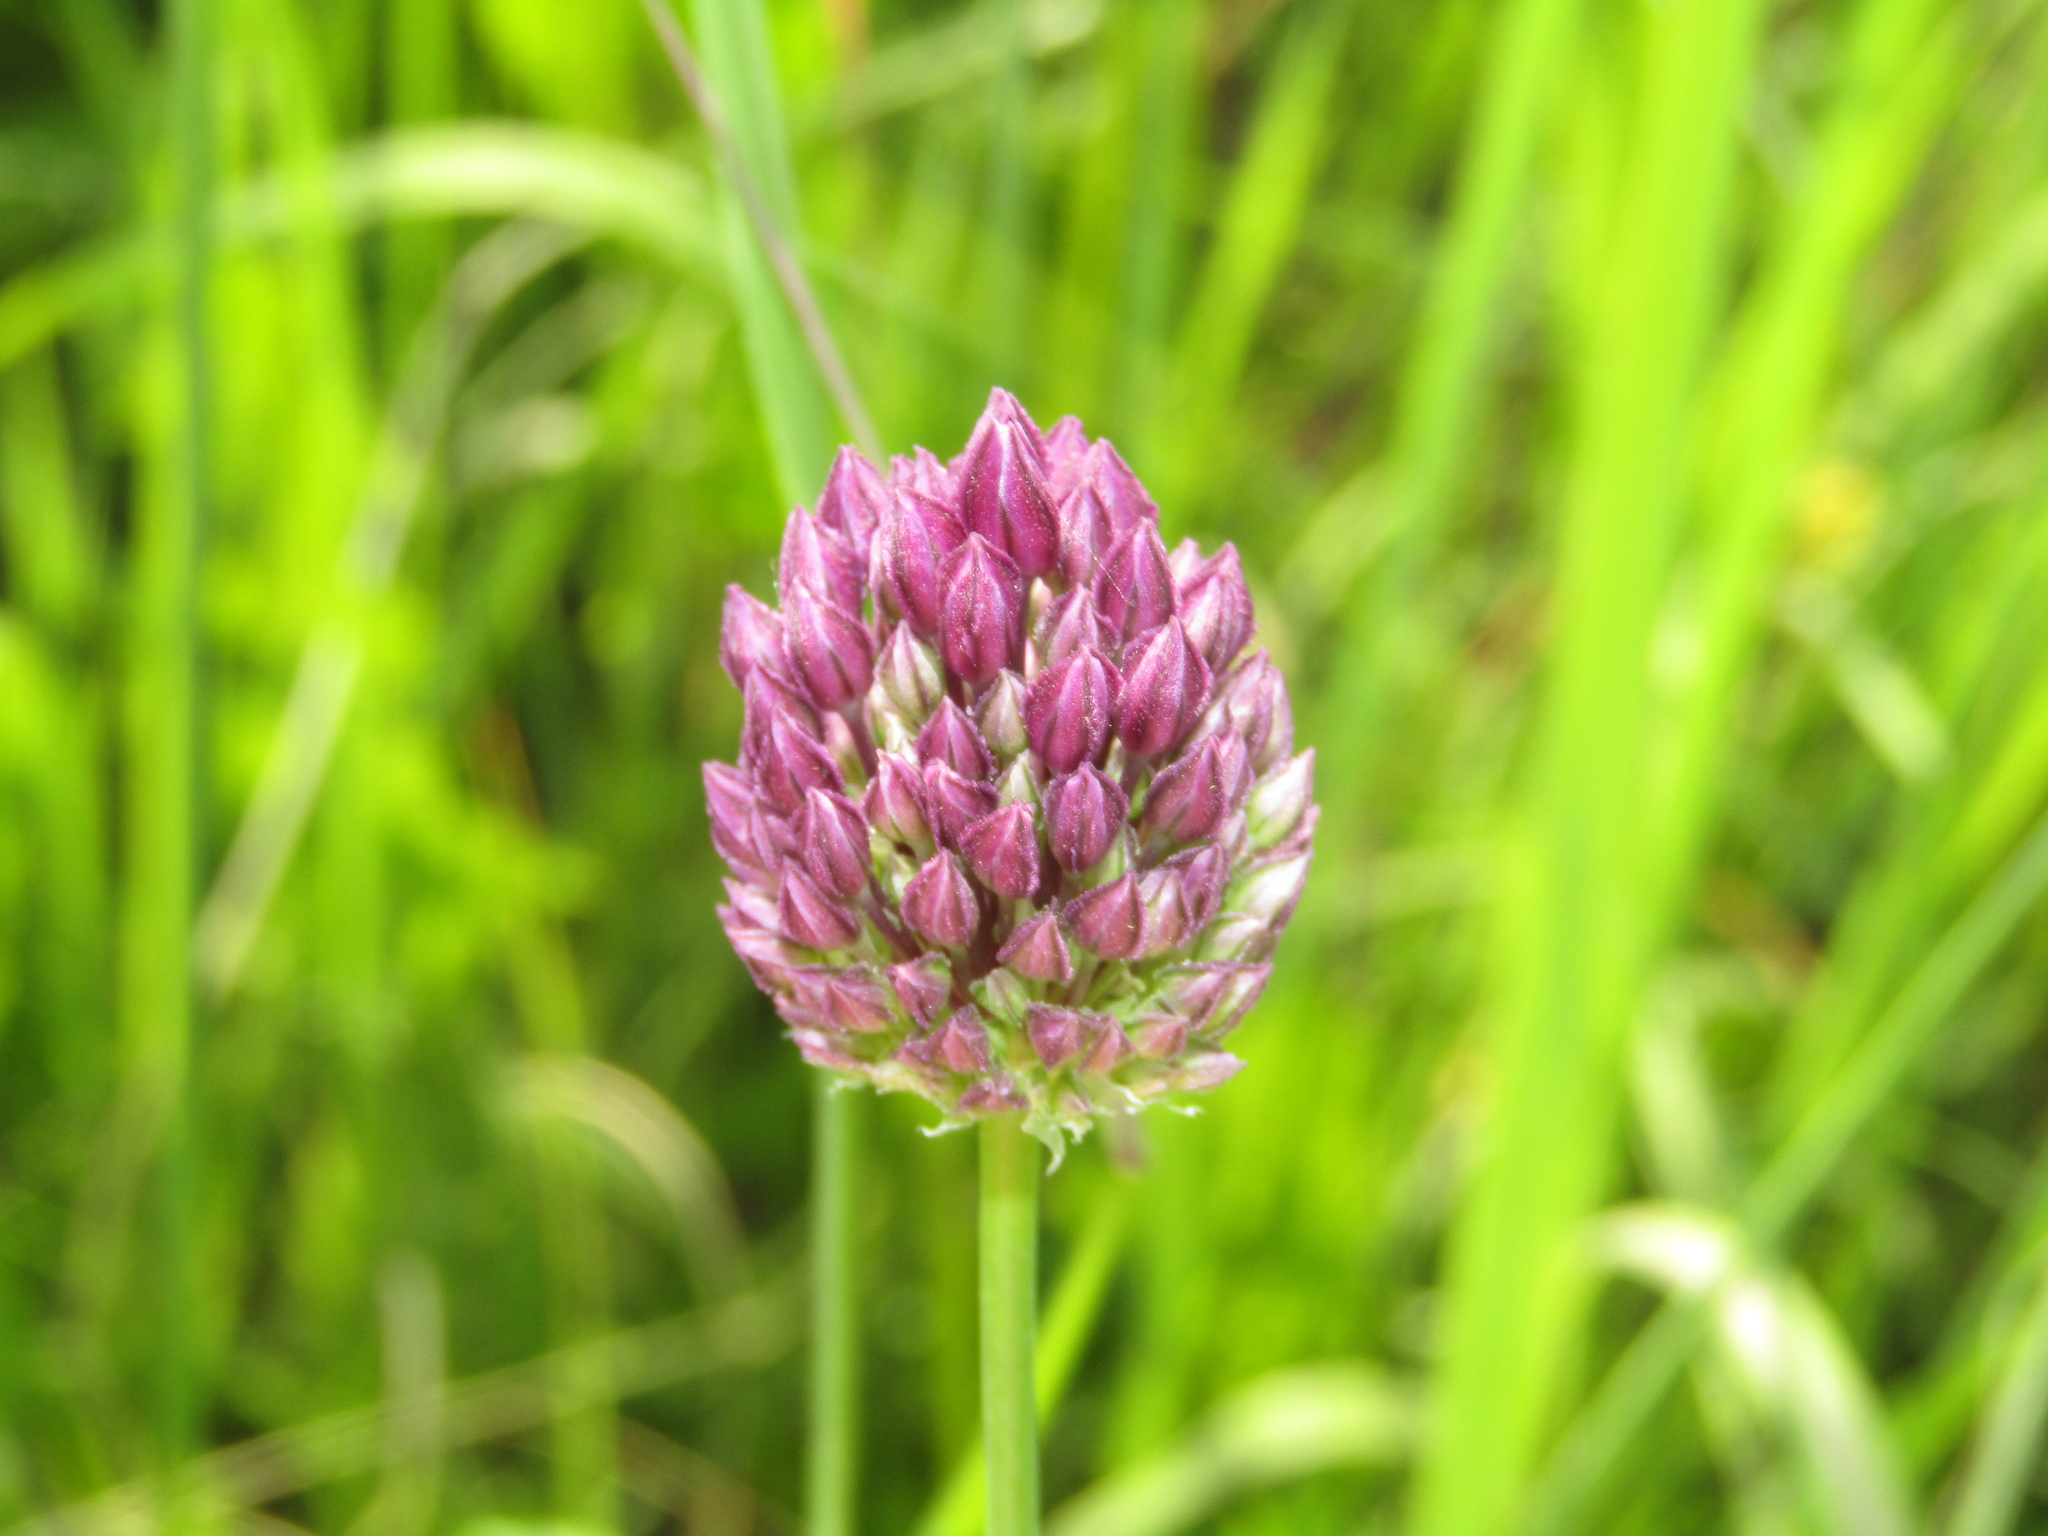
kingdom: Plantae
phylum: Tracheophyta
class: Liliopsida
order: Asparagales
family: Amaryllidaceae
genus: Allium
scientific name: Allium rotundum
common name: Sand leek
